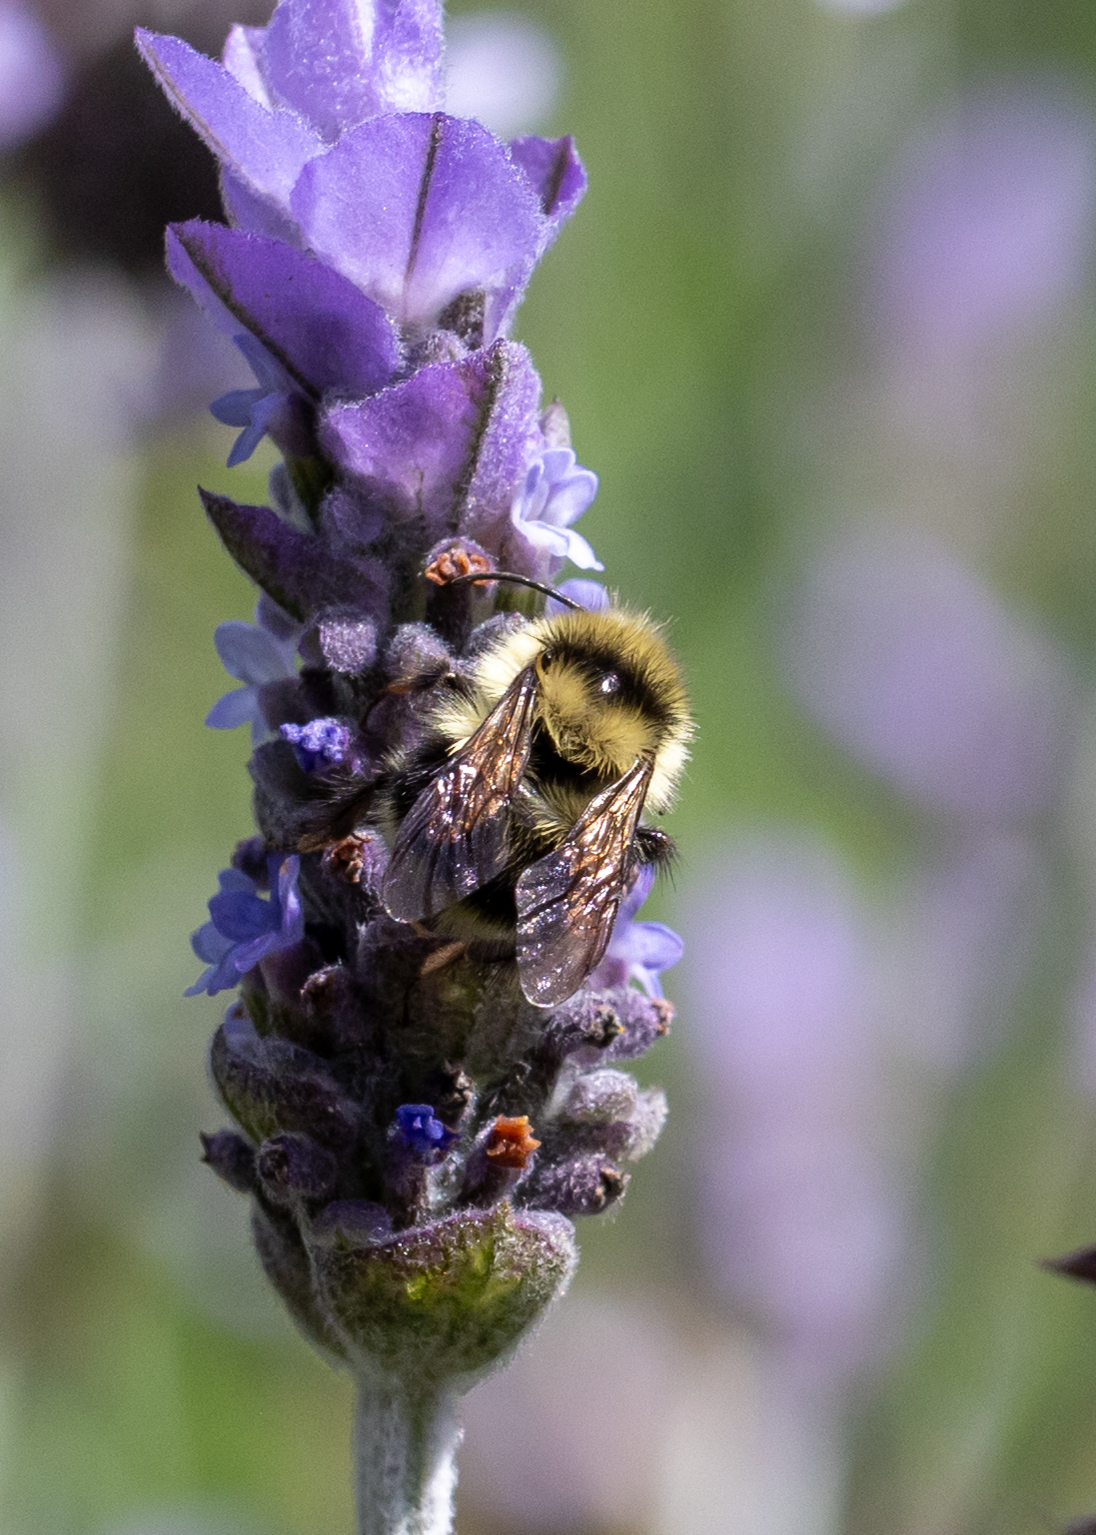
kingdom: Animalia
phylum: Arthropoda
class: Insecta
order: Hymenoptera
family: Apidae
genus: Bombus
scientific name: Bombus melanopygus
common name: Black tail bumble bee
